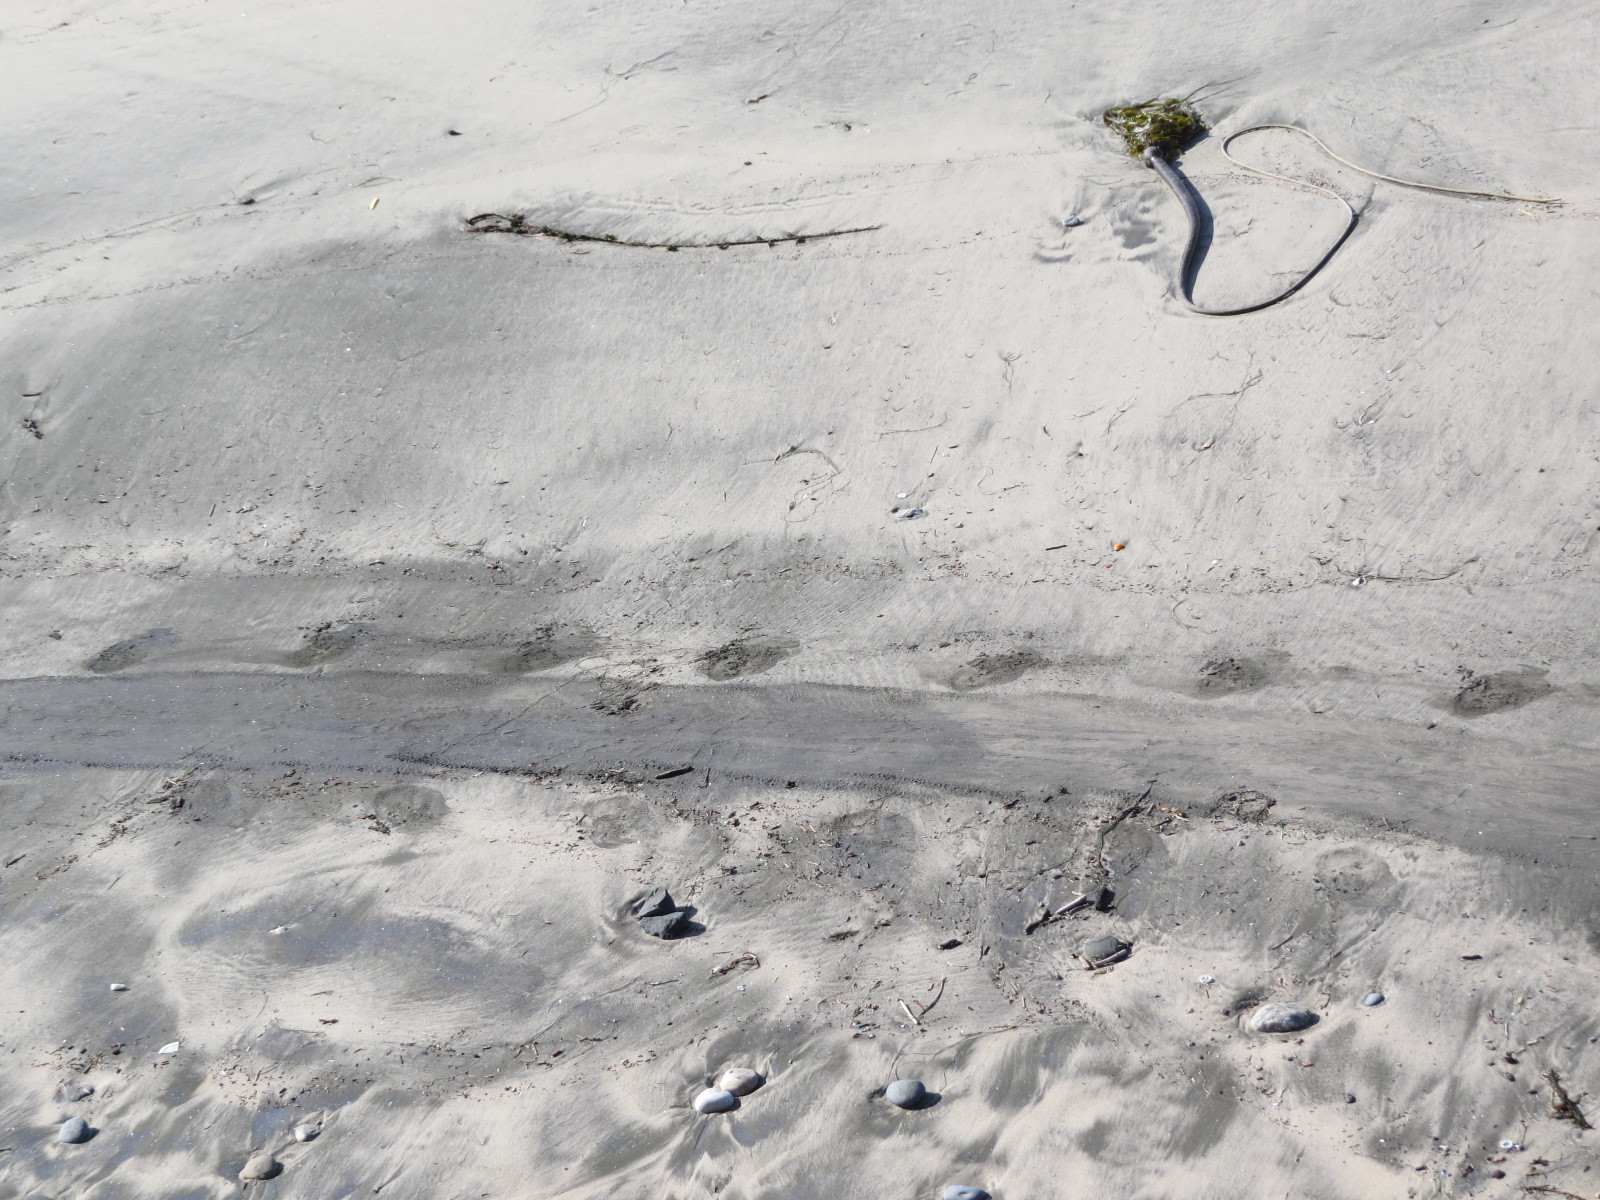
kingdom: Animalia
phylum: Chordata
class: Mammalia
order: Carnivora
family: Phocidae
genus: Mirounga
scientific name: Mirounga angustirostris
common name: Northern elephant seal
